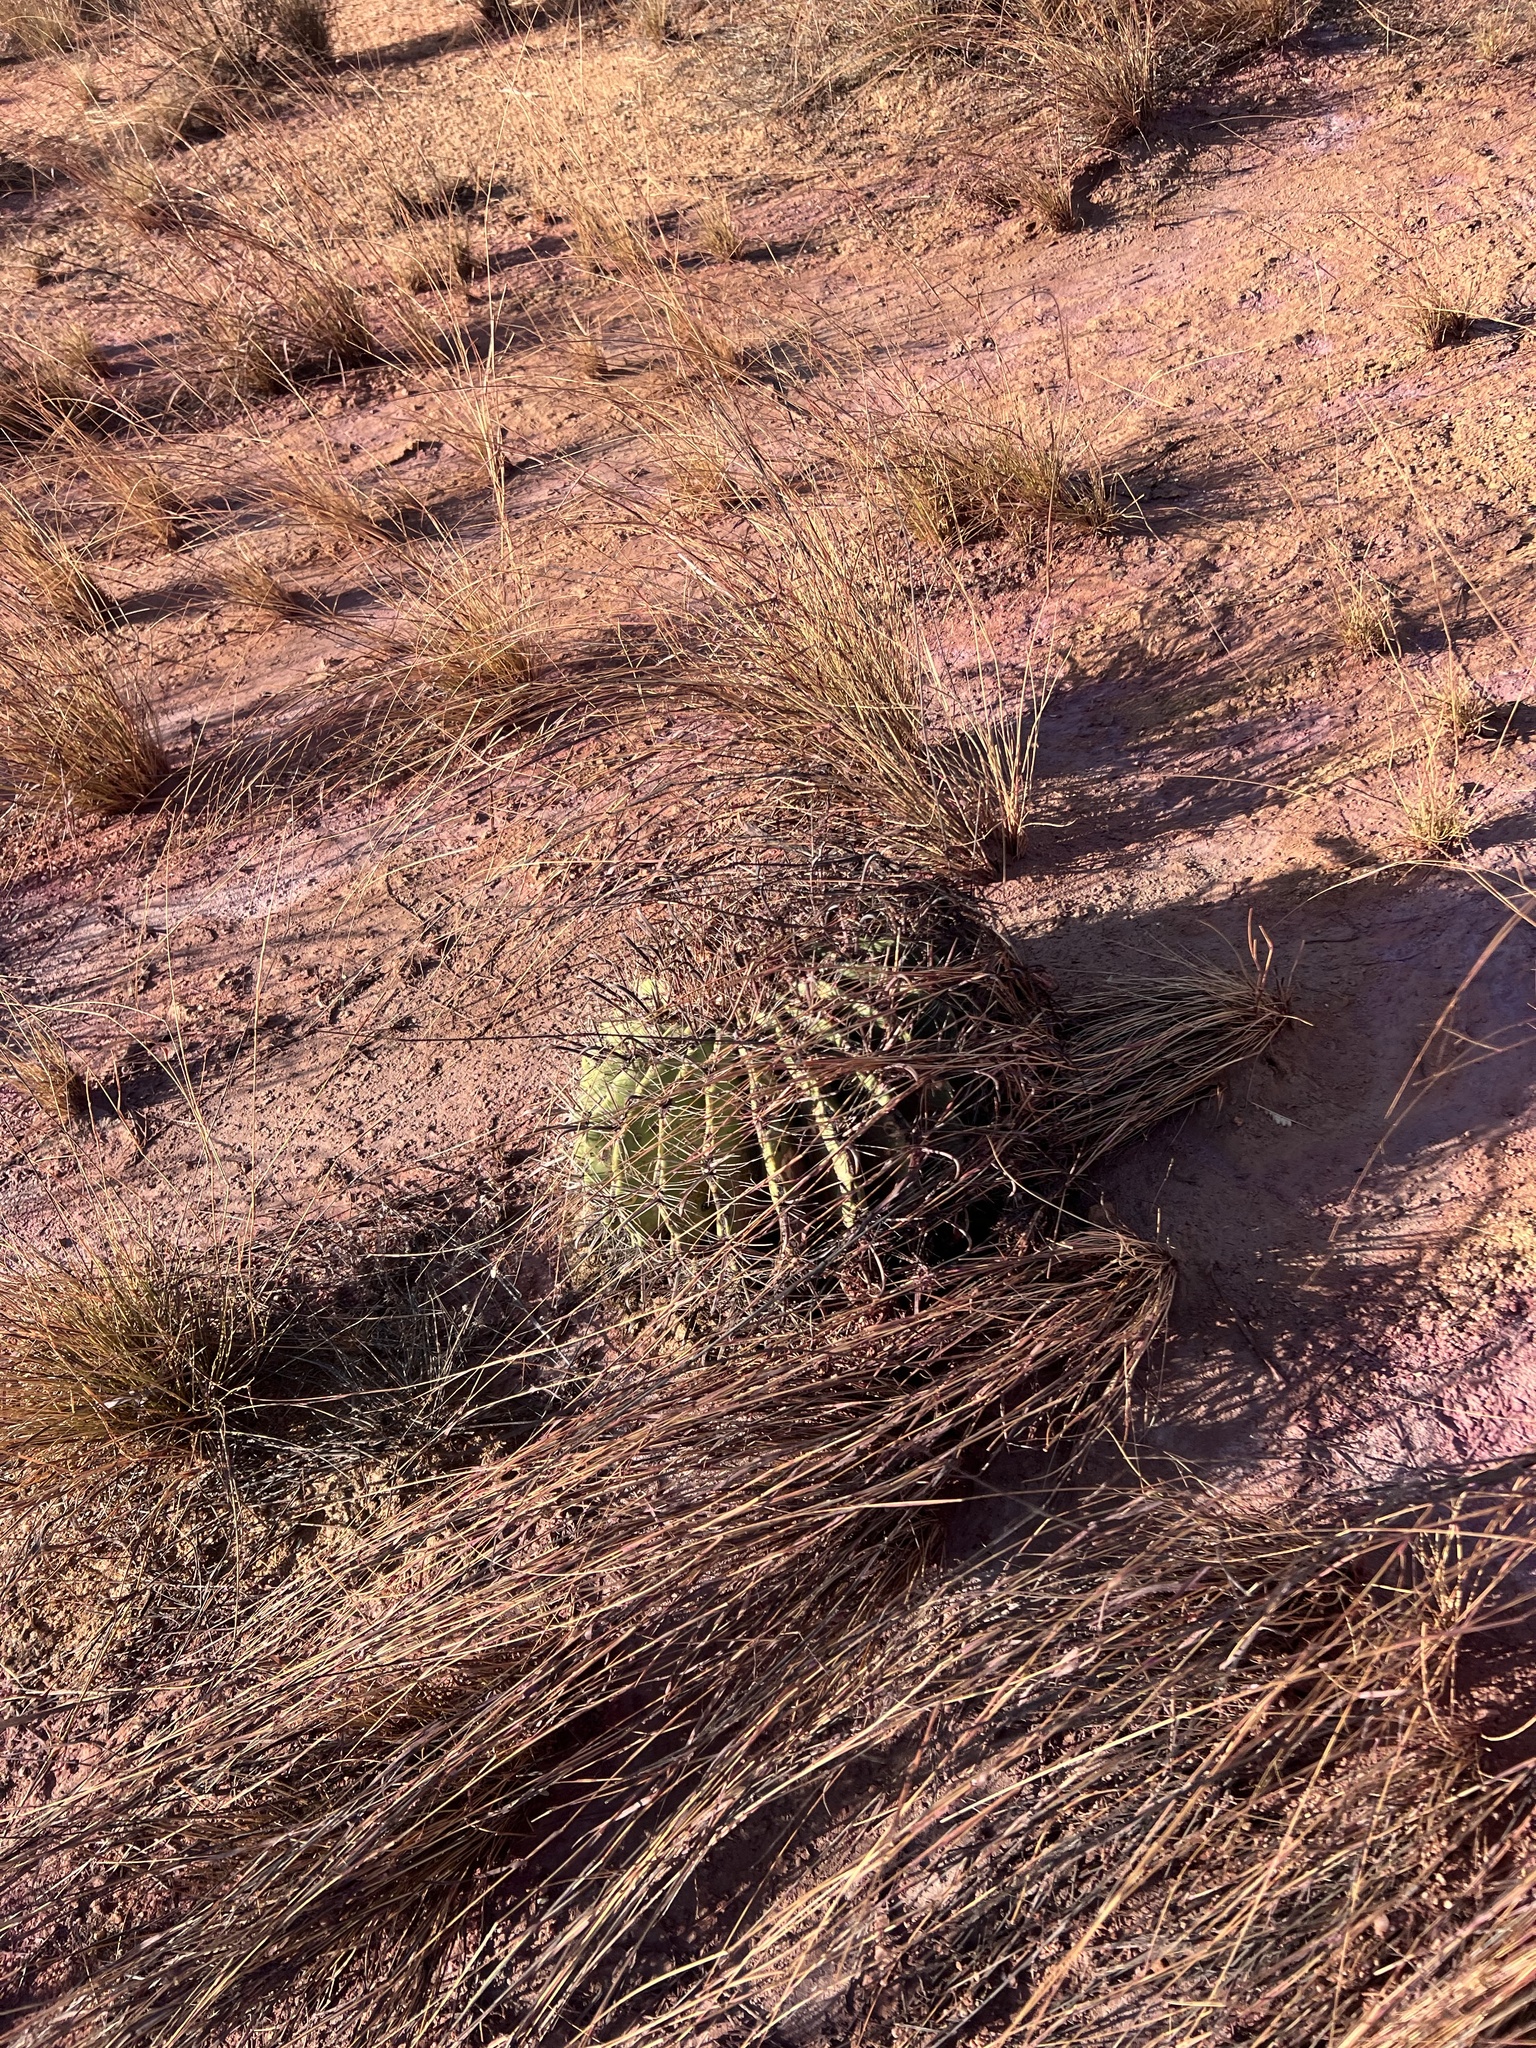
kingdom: Plantae
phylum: Tracheophyta
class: Magnoliopsida
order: Caryophyllales
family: Cactaceae
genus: Ferocactus
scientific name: Ferocactus wislizeni
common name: Candy barrel cactus
